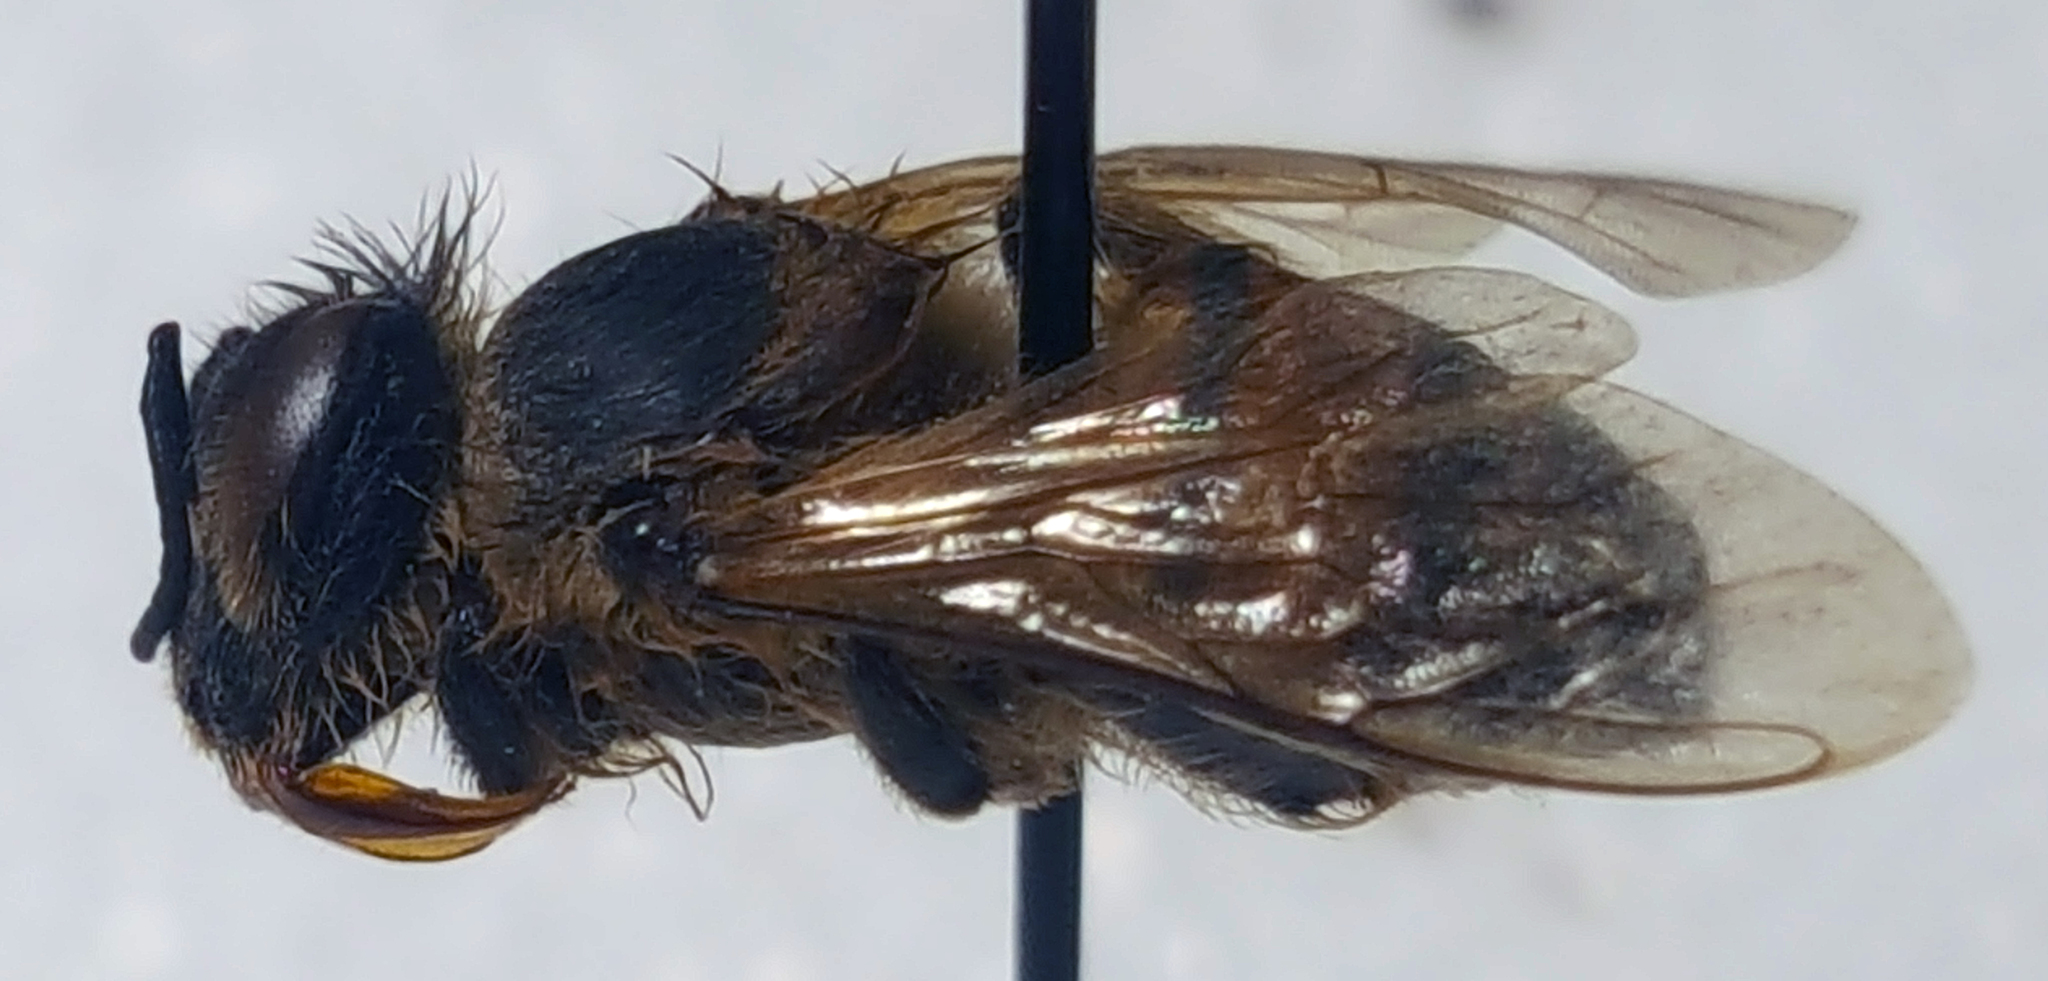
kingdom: Animalia
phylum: Arthropoda
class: Insecta
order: Hymenoptera
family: Apidae
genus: Apis
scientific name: Apis mellifera
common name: Honey bee
